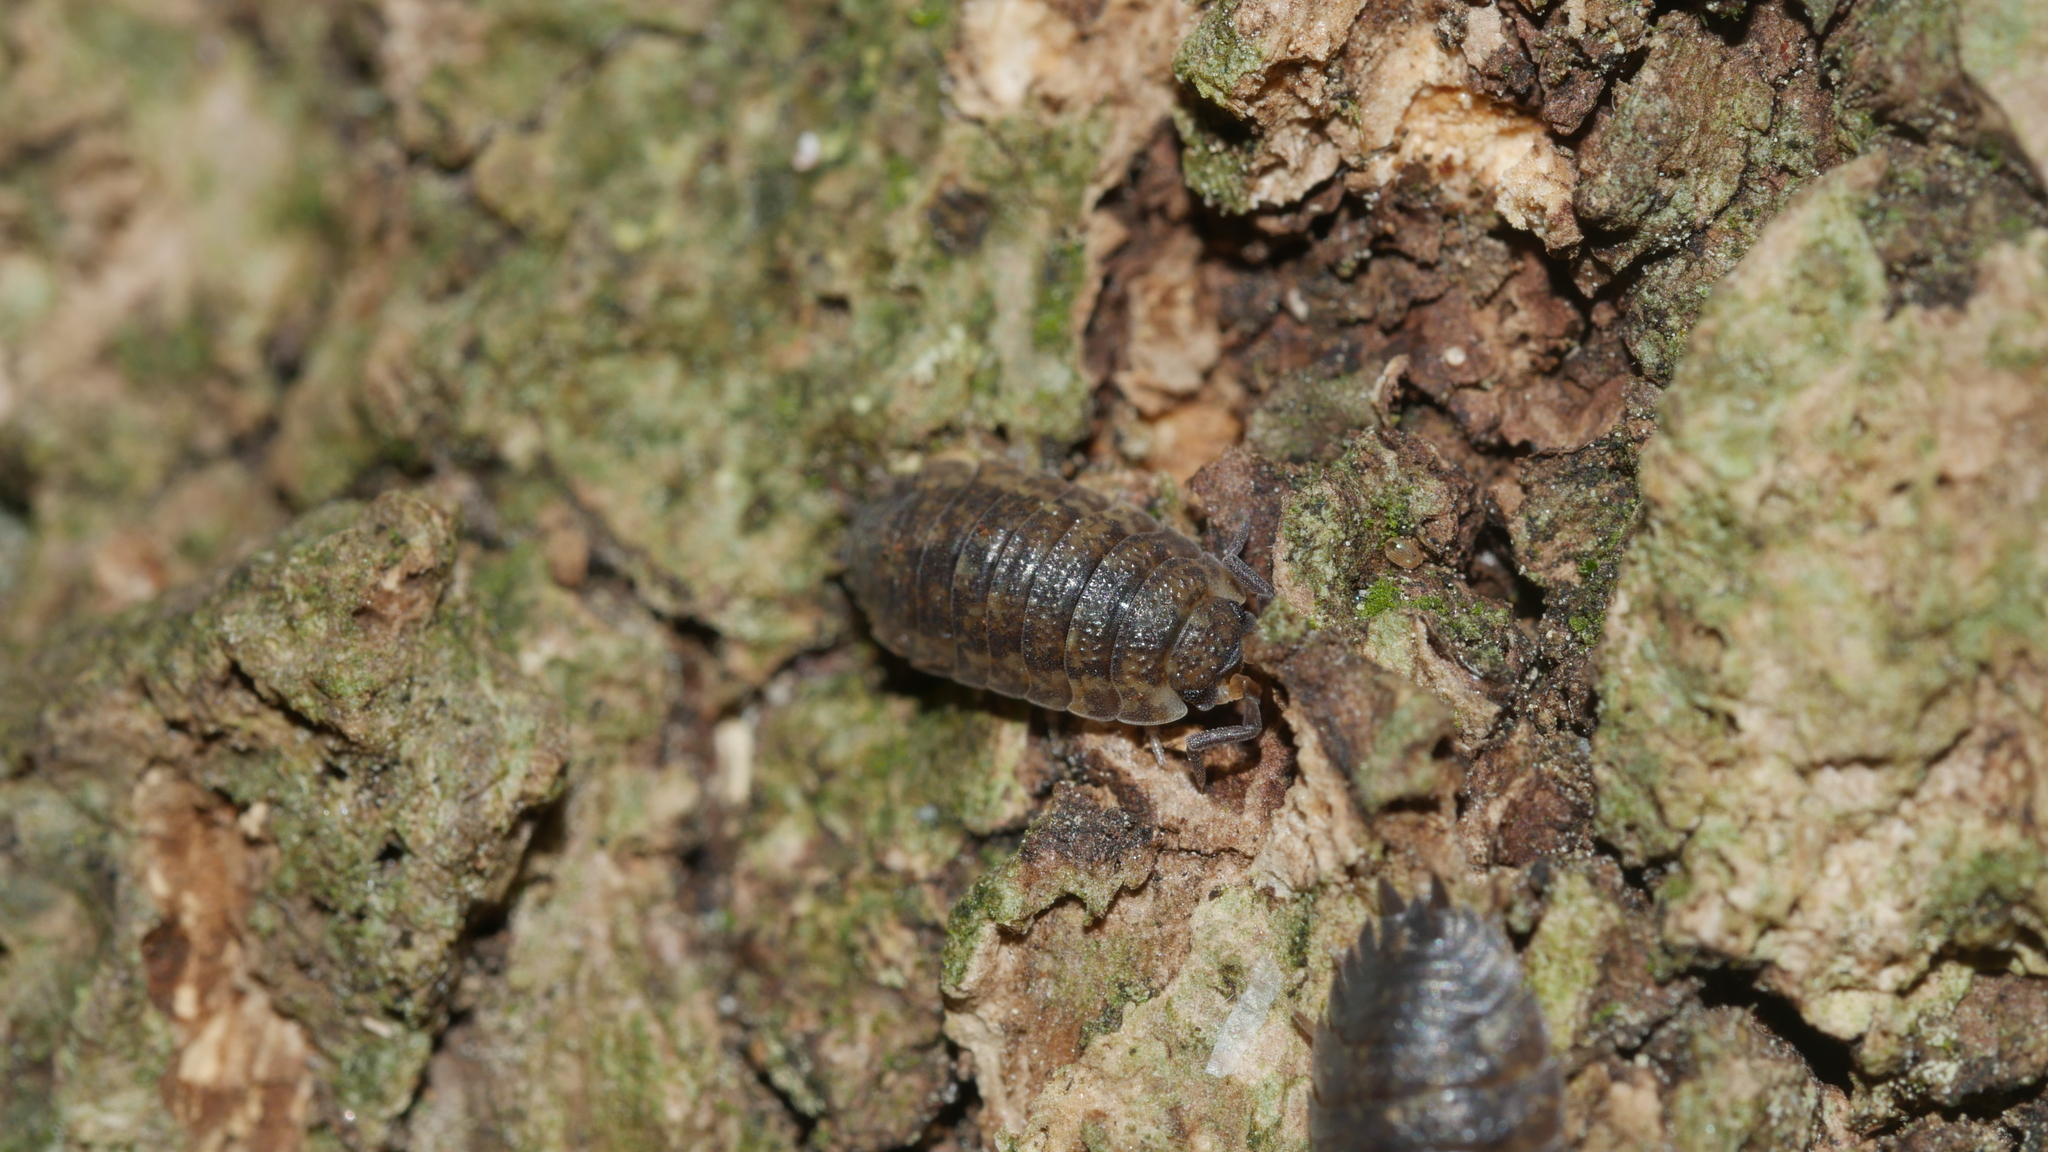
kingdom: Animalia
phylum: Arthropoda
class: Malacostraca
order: Isopoda
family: Porcellionidae
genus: Porcellio
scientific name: Porcellio scaber
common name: Common rough woodlouse
